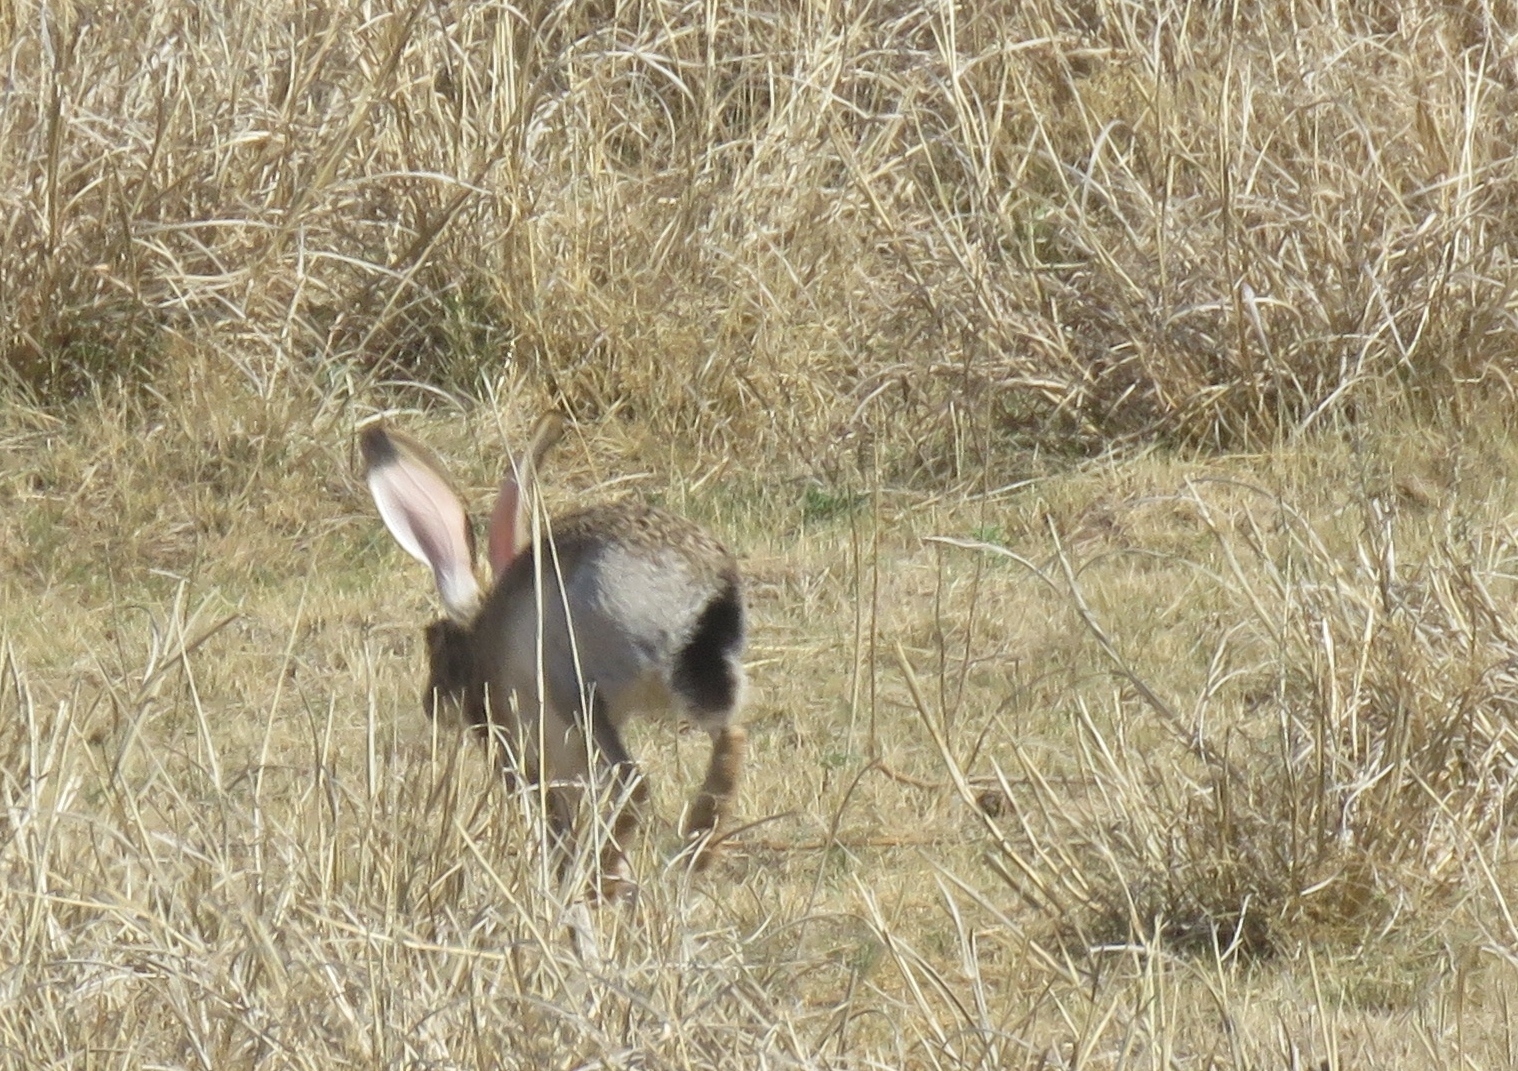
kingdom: Animalia
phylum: Chordata
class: Mammalia
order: Lagomorpha
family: Leporidae
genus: Lepus
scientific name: Lepus californicus
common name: Black-tailed jackrabbit
